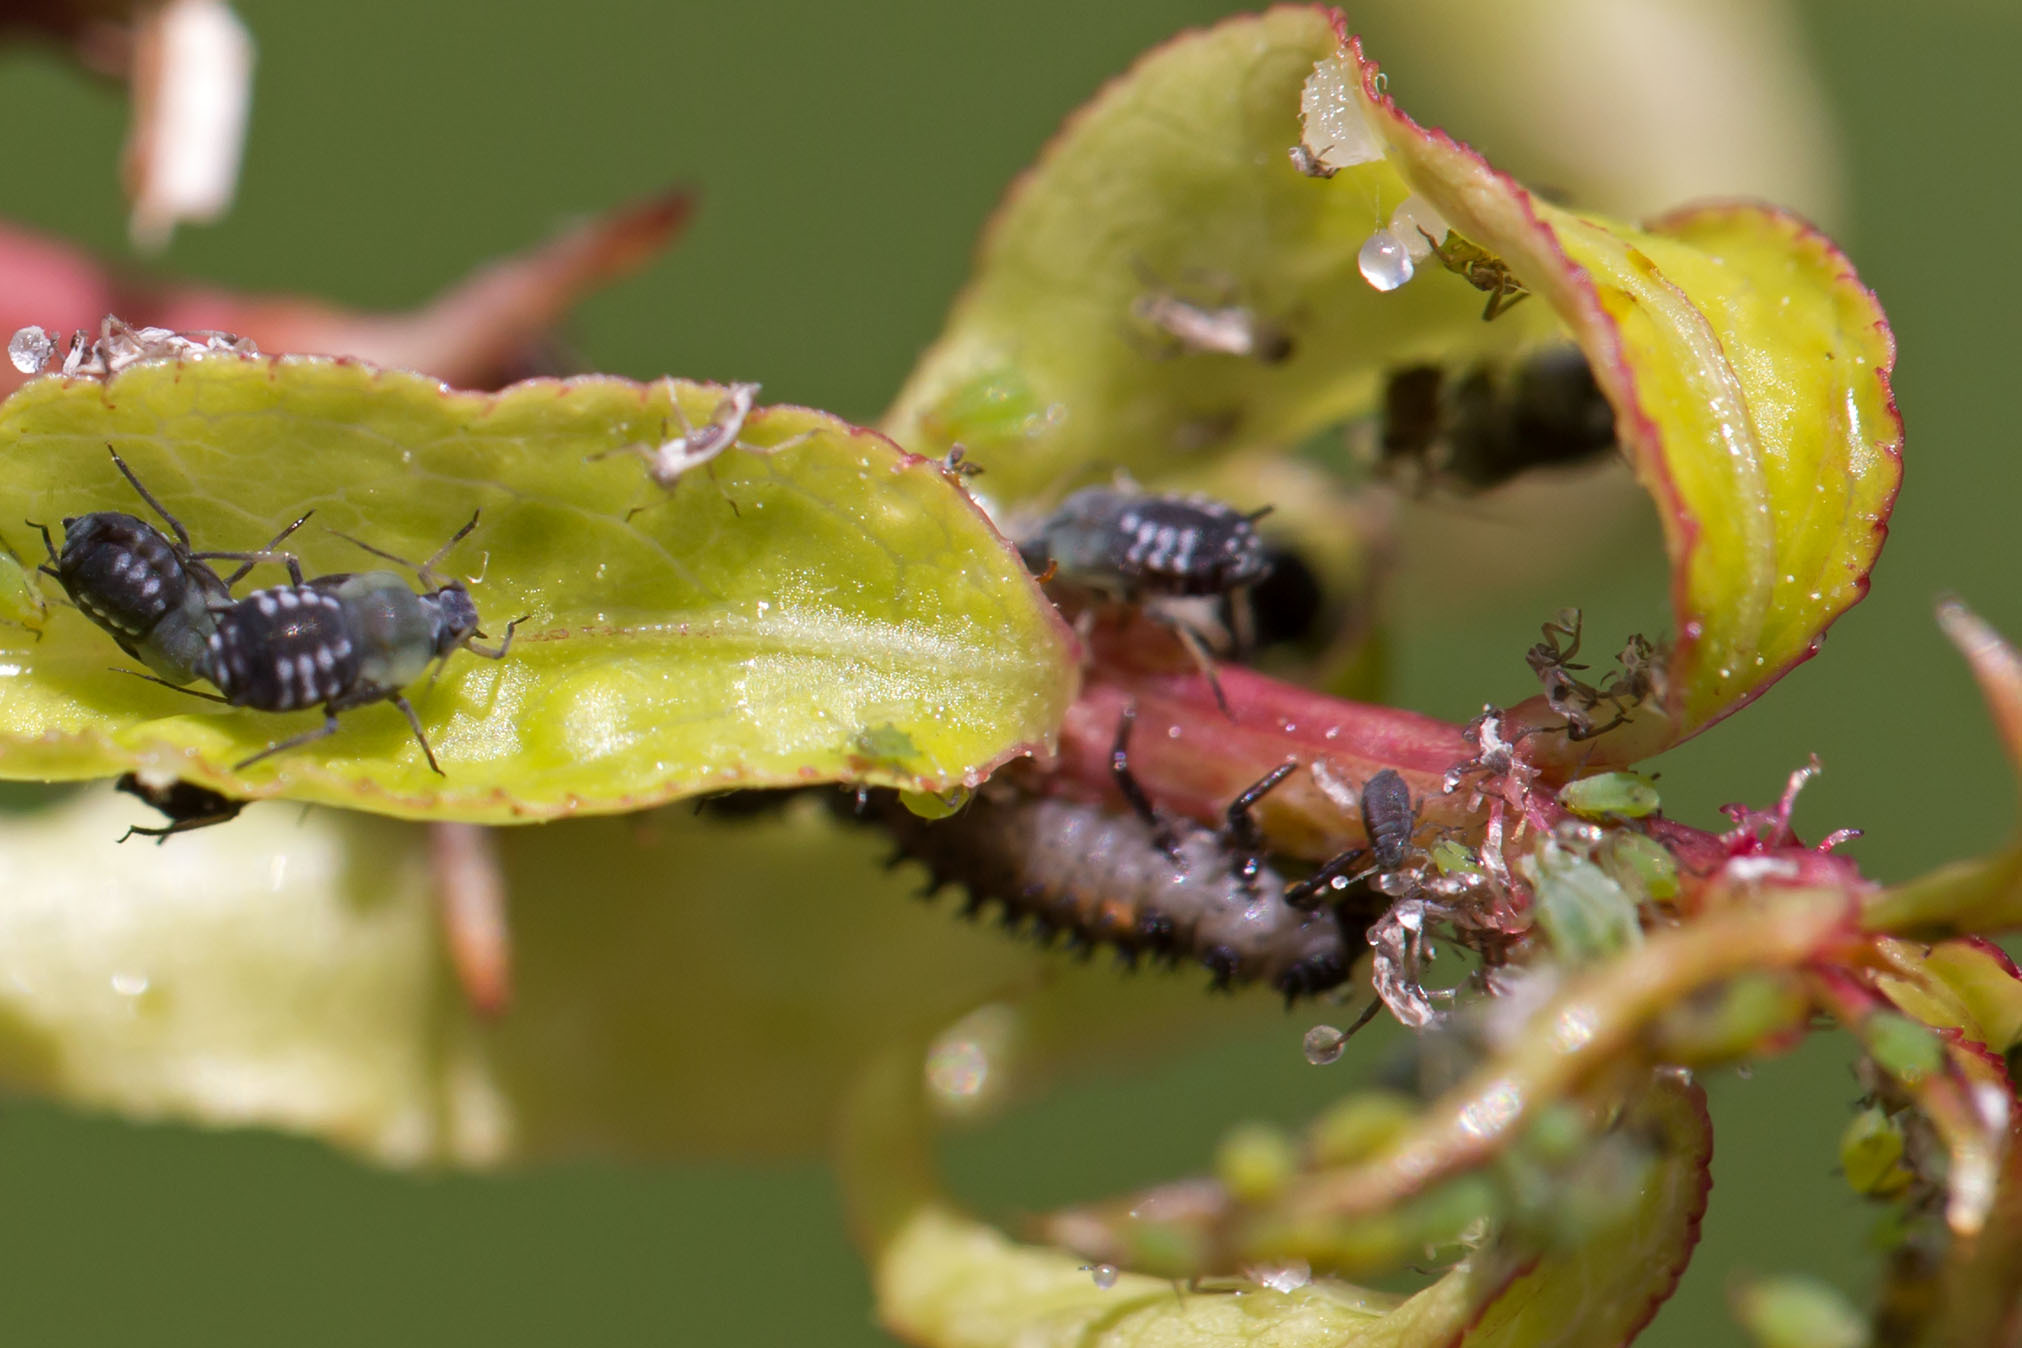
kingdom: Animalia
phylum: Arthropoda
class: Insecta
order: Coleoptera
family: Coccinellidae
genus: Harmonia
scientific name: Harmonia axyridis
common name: Harlequin ladybird
